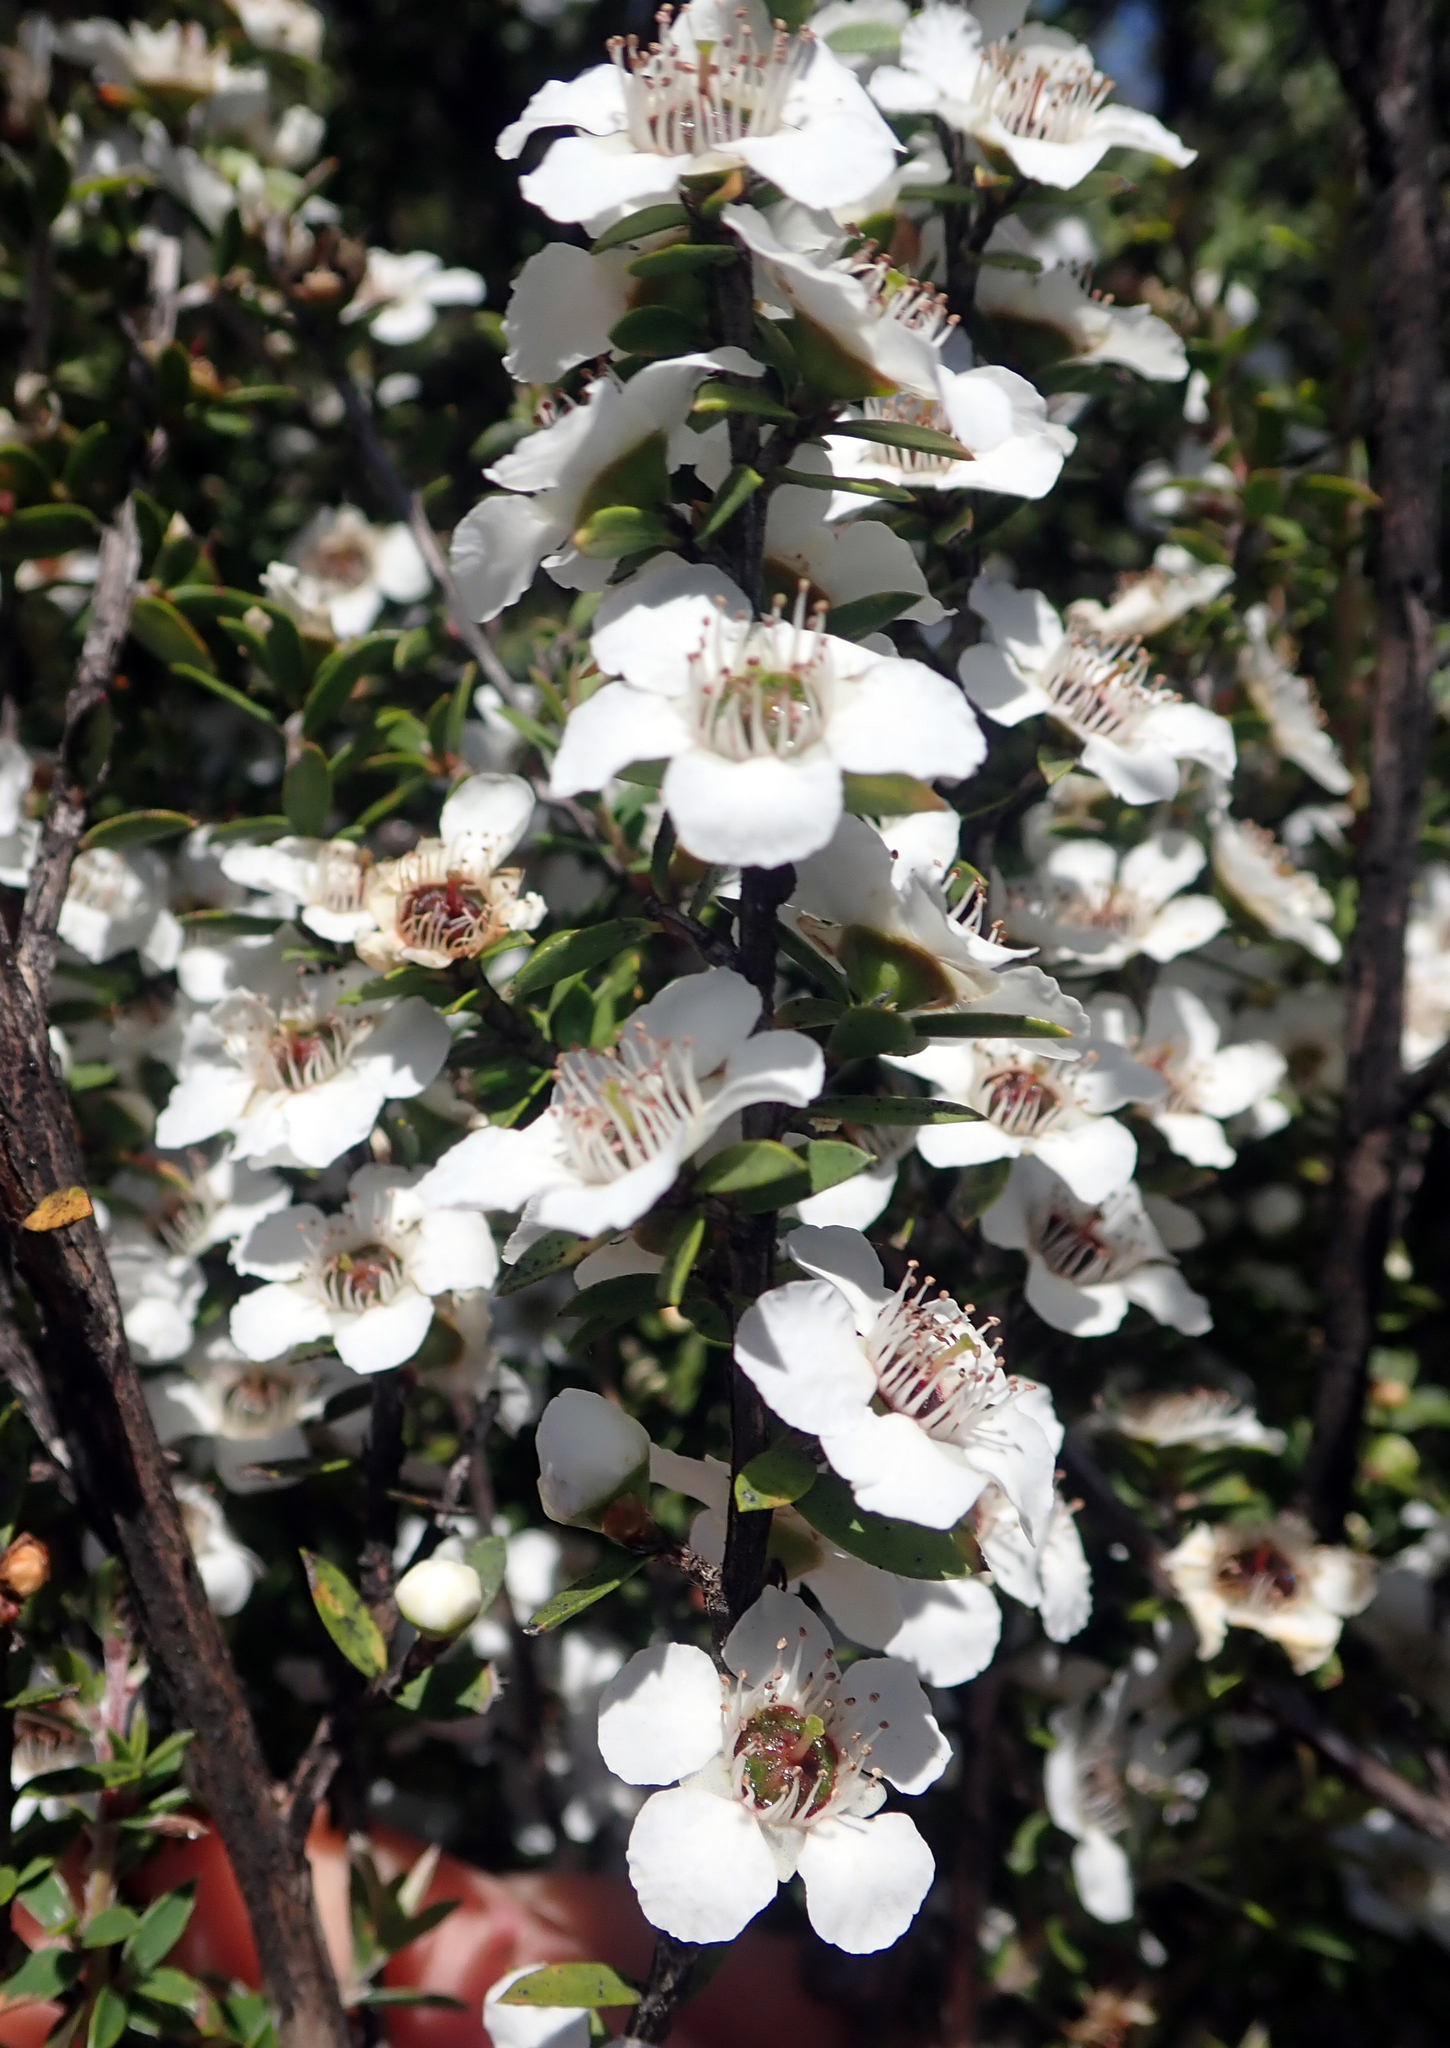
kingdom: Plantae
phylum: Tracheophyta
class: Magnoliopsida
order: Myrtales
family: Myrtaceae
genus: Leptospermum
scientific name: Leptospermum scoparium
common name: Broom tea-tree
